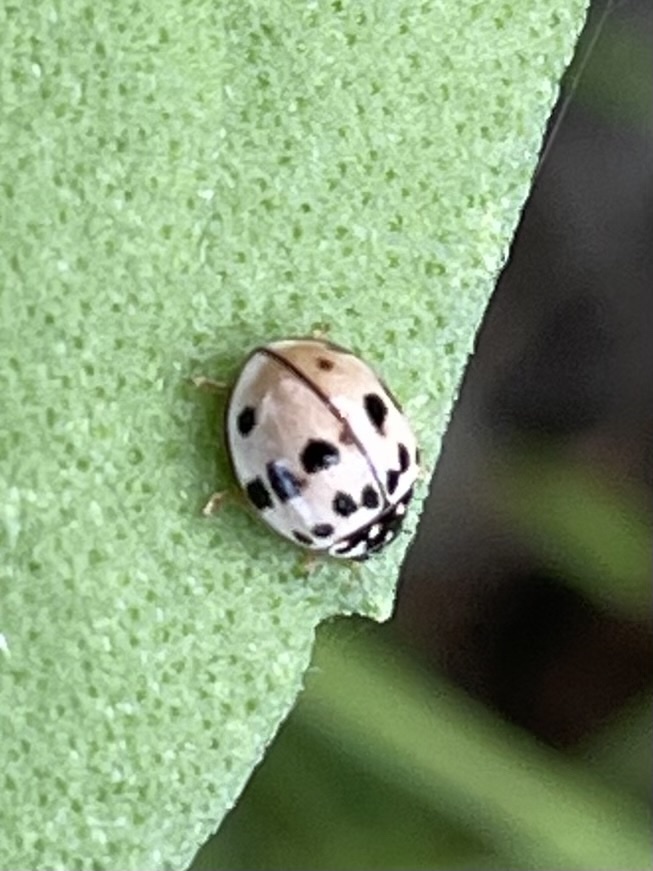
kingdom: Animalia
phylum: Arthropoda
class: Insecta
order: Coleoptera
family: Coccinellidae
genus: Olla
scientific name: Olla v-nigrum
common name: Ashy gray lady beetle
